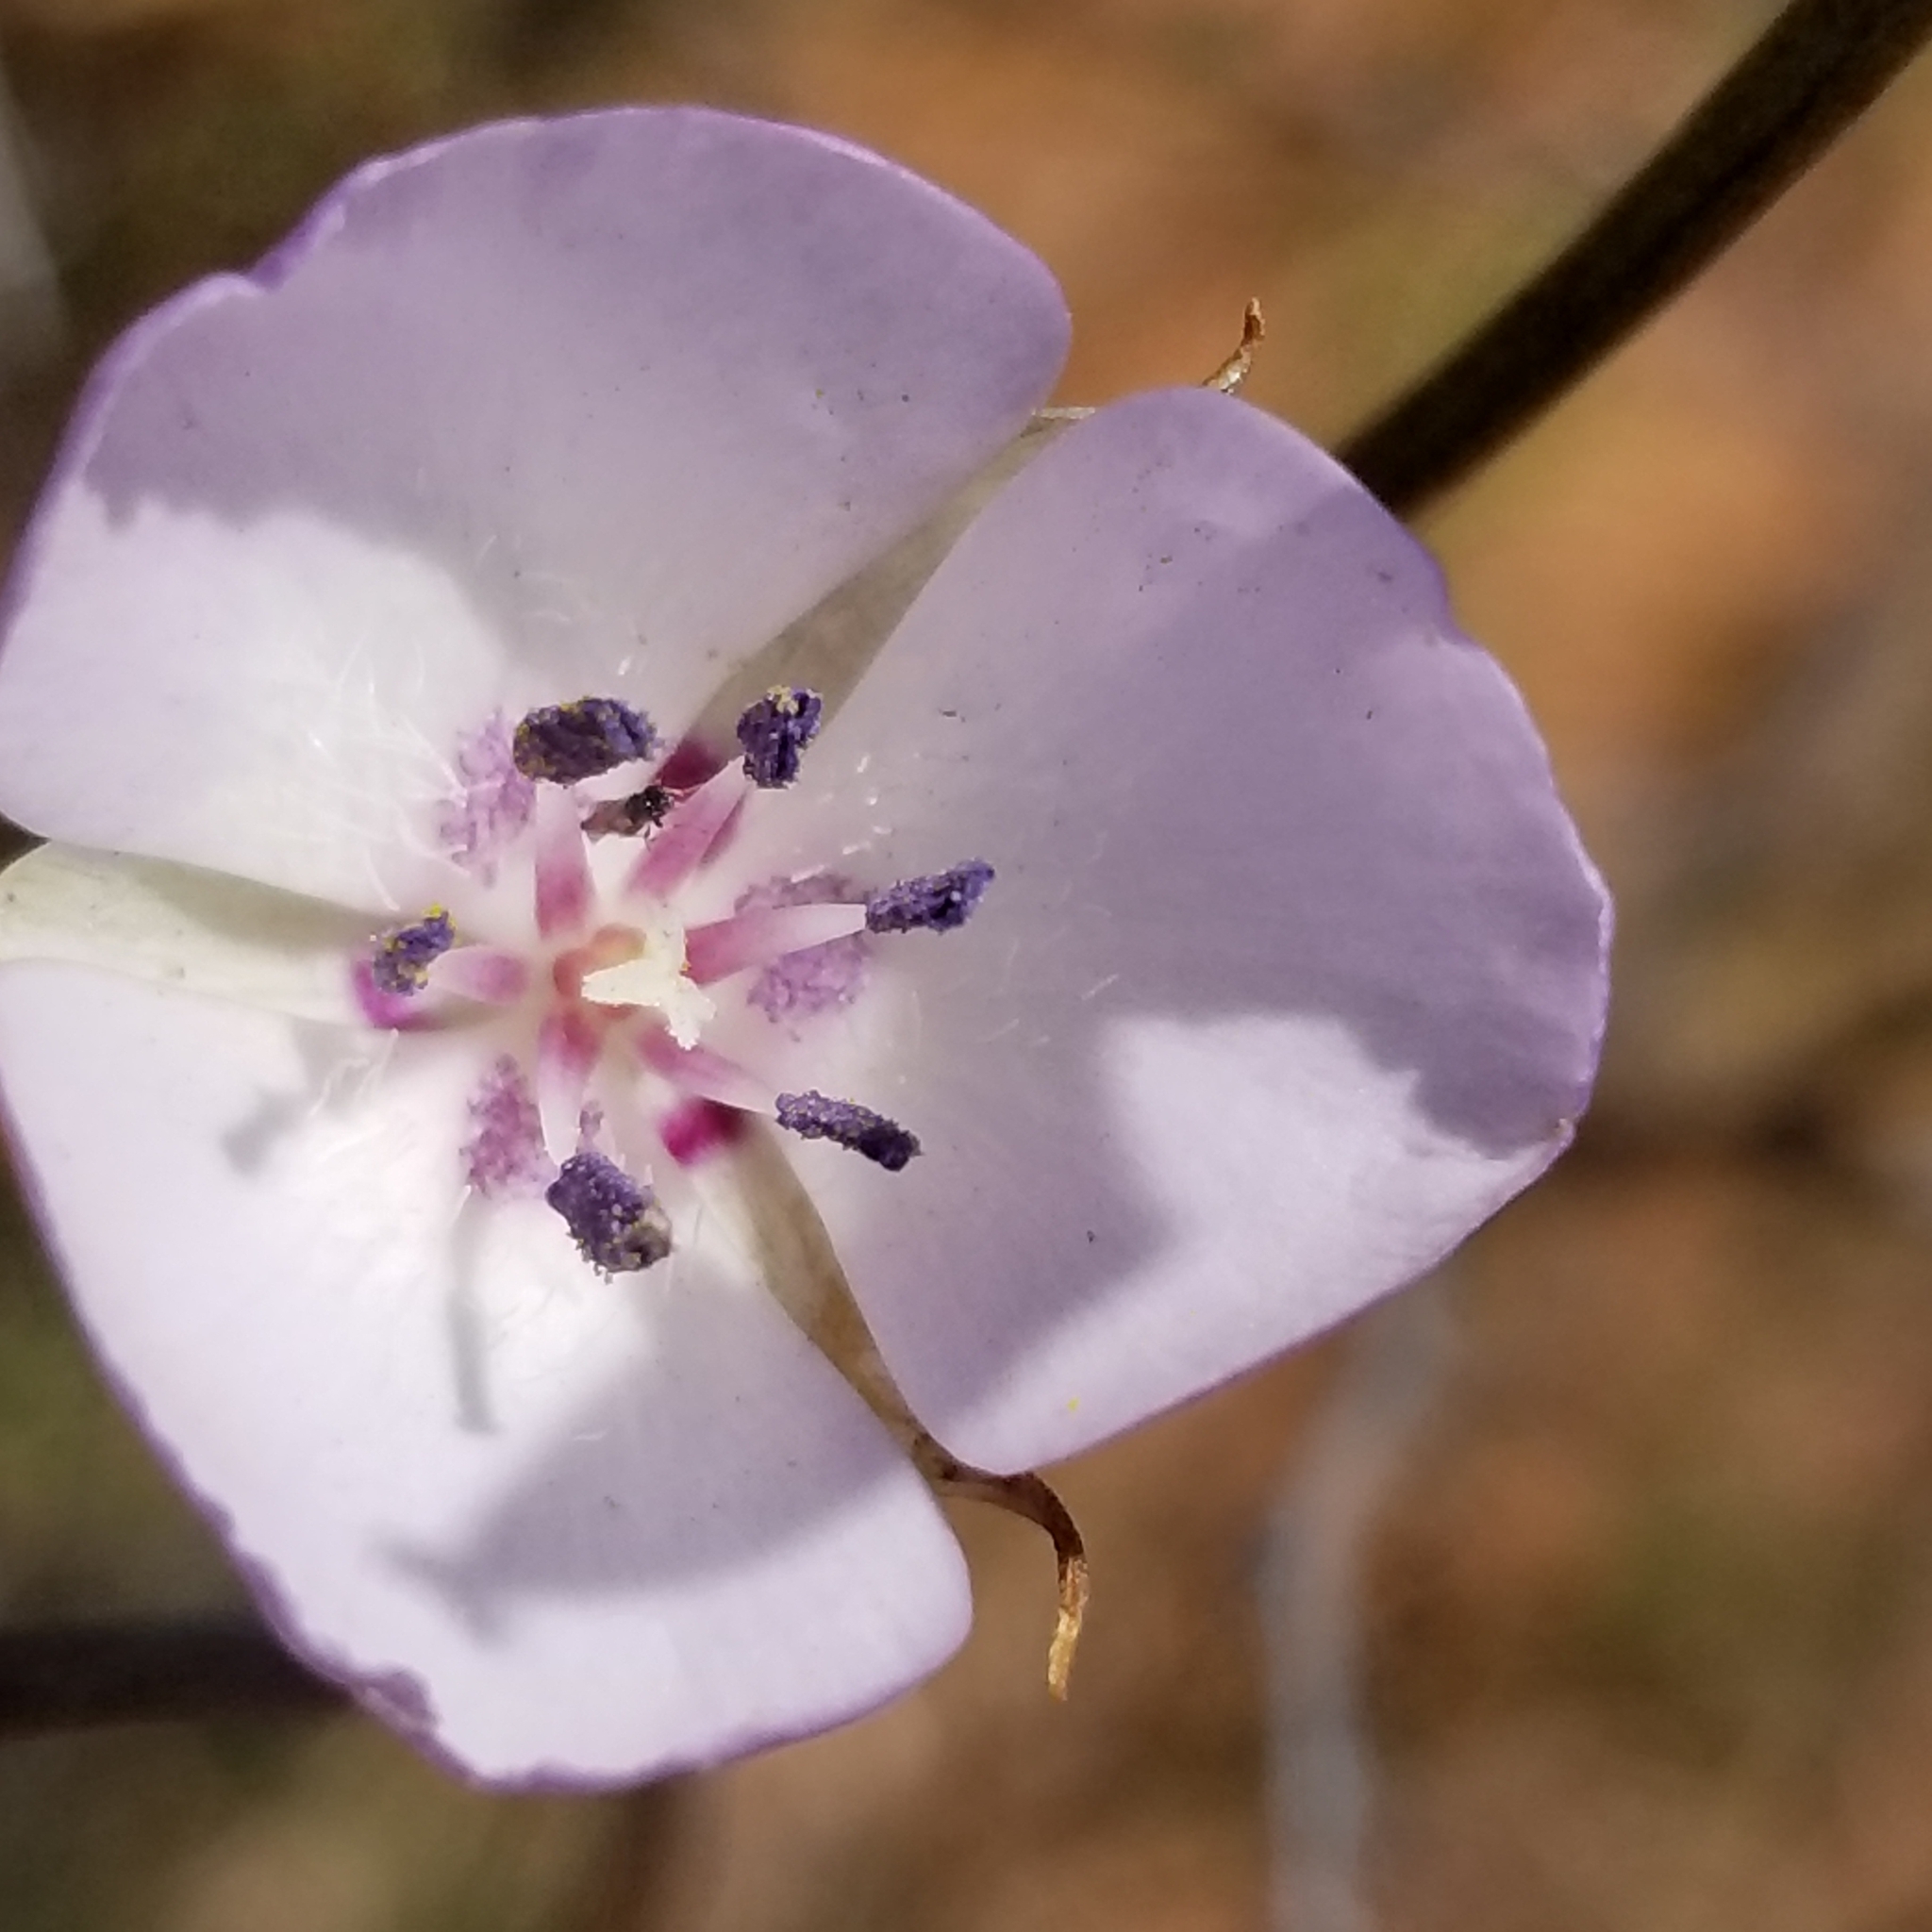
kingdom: Plantae
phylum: Tracheophyta
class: Liliopsida
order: Liliales
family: Liliaceae
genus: Calochortus
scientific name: Calochortus splendens
